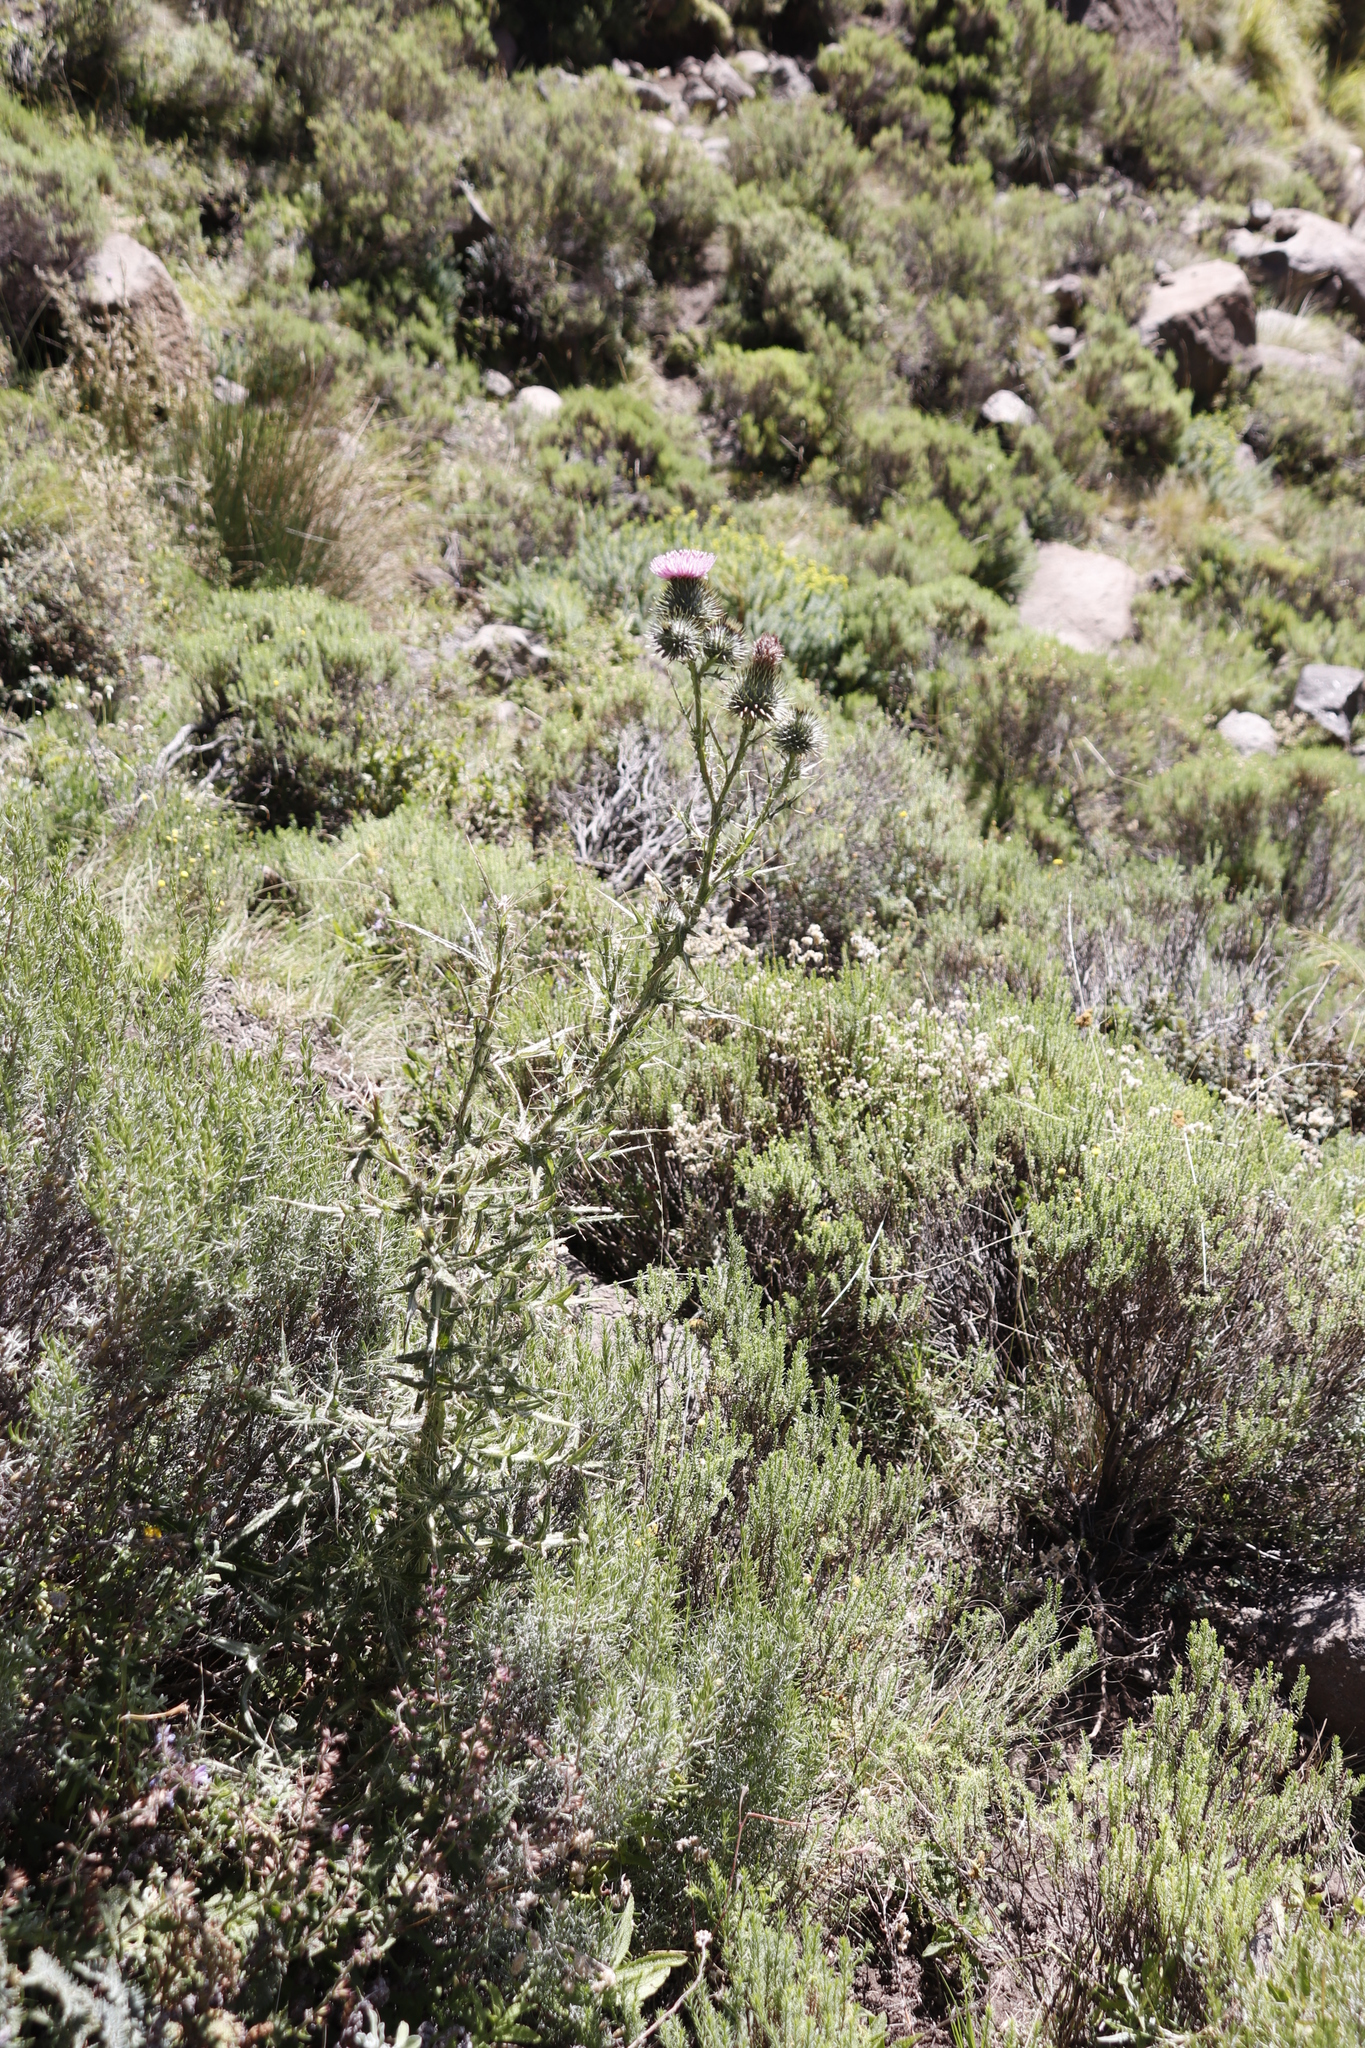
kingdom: Plantae
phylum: Tracheophyta
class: Magnoliopsida
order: Asterales
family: Asteraceae
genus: Cirsium
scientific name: Cirsium vulgare
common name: Bull thistle
